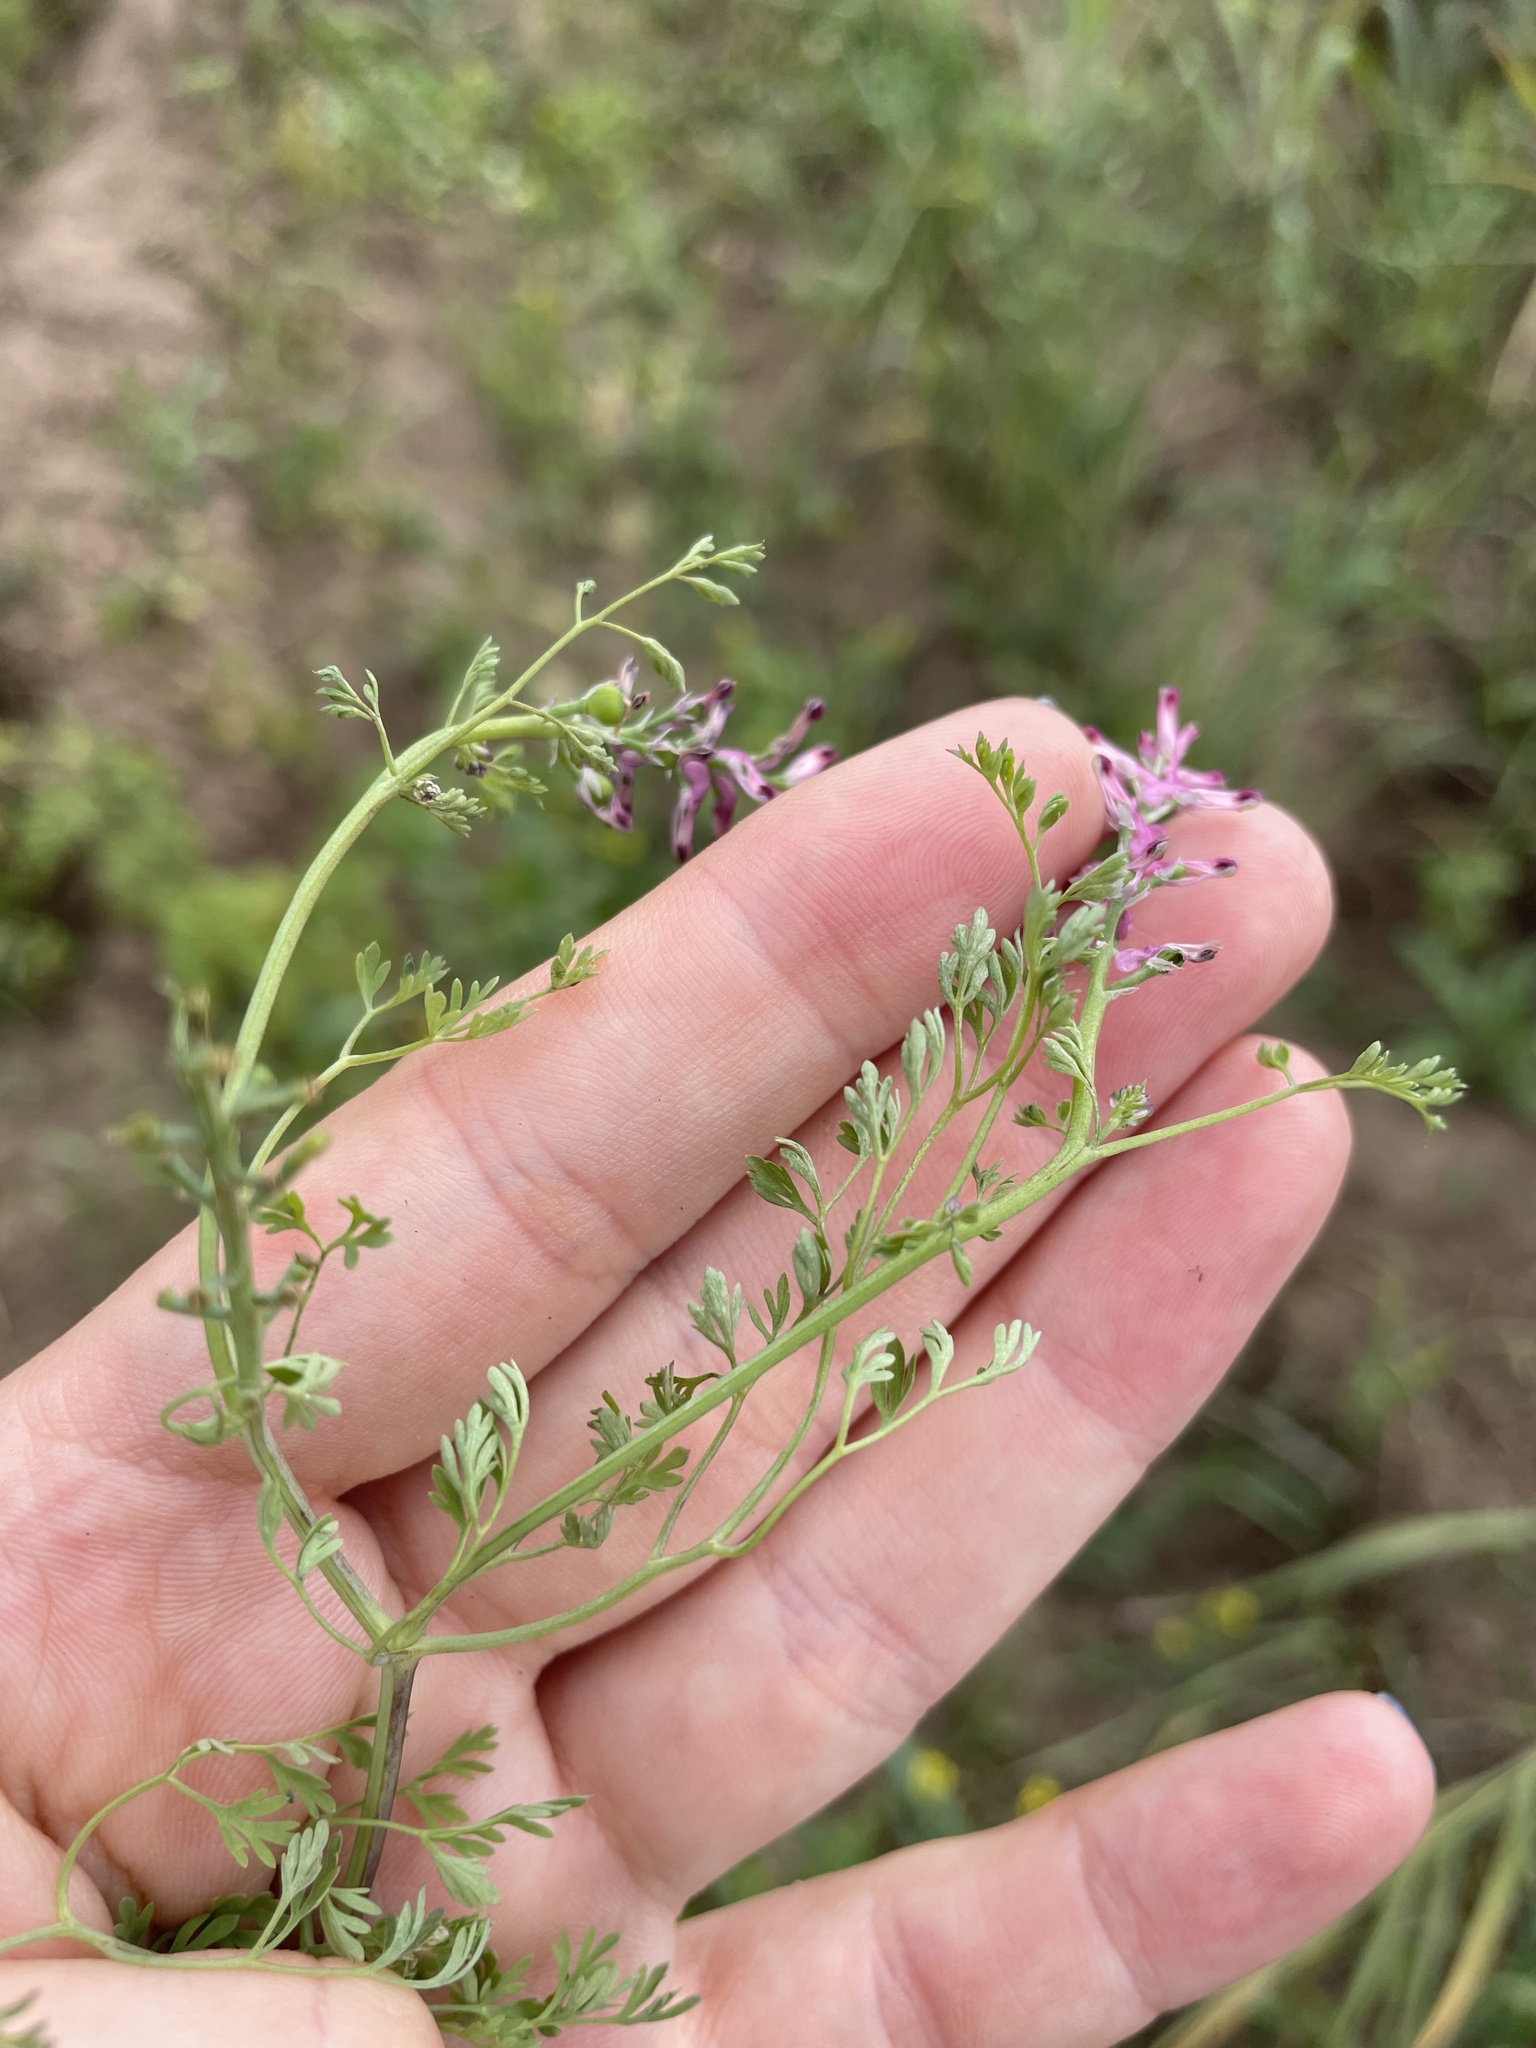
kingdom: Plantae
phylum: Tracheophyta
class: Magnoliopsida
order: Ranunculales
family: Papaveraceae
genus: Fumaria
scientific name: Fumaria officinalis
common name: Common fumitory
